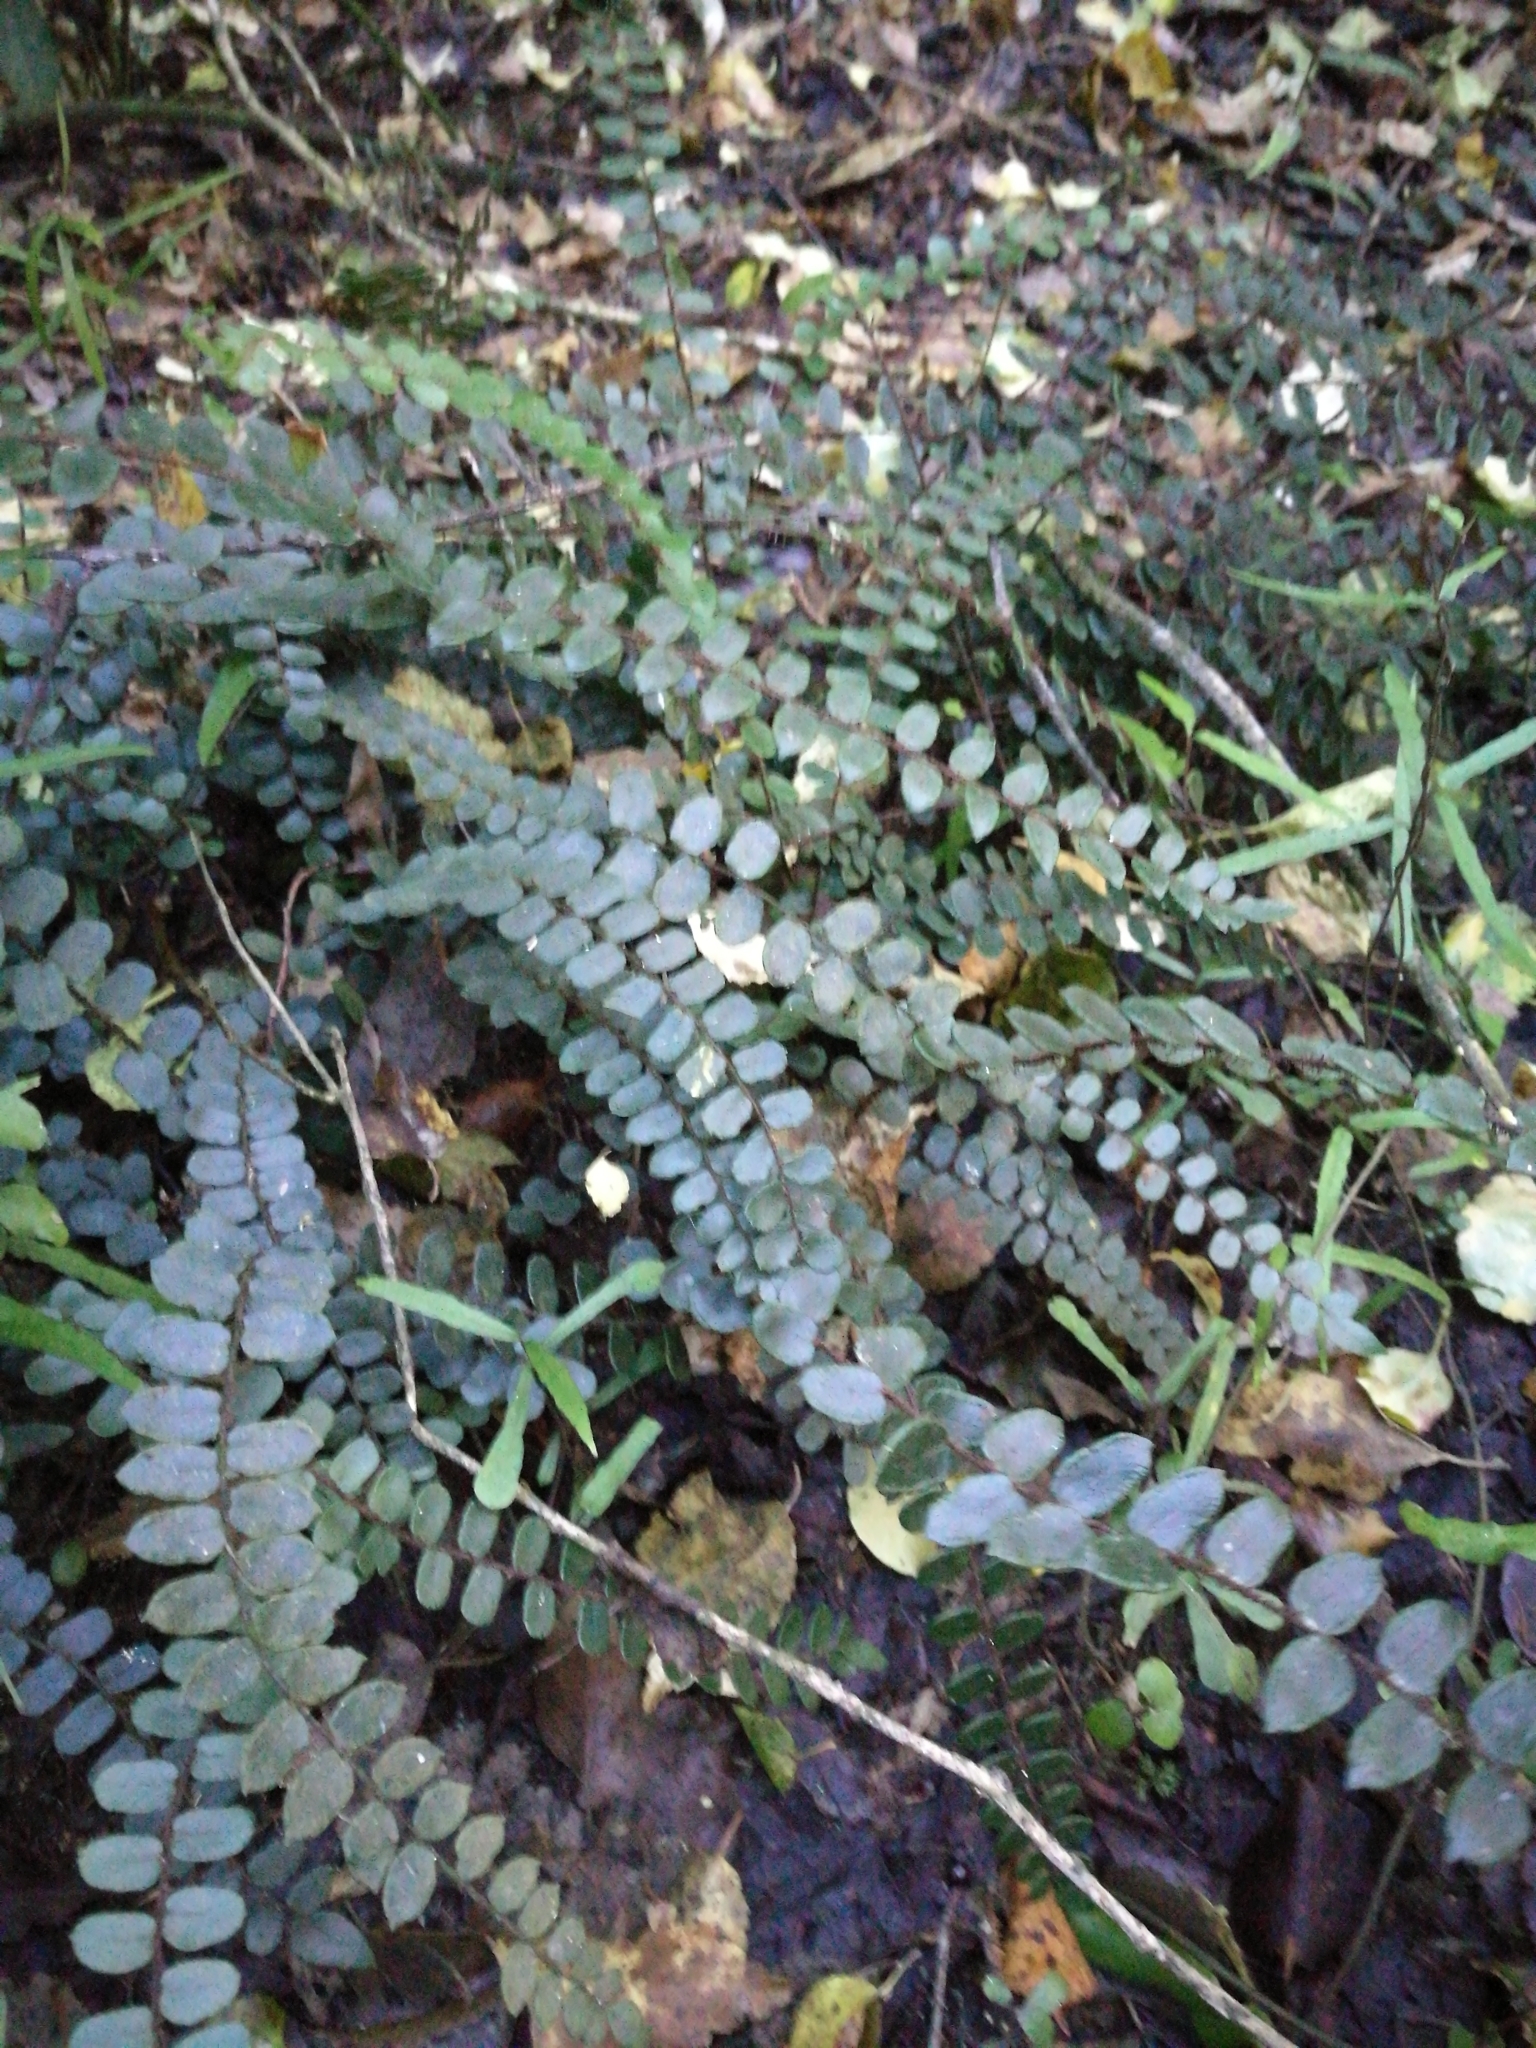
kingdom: Plantae
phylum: Tracheophyta
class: Polypodiopsida
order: Polypodiales
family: Pteridaceae
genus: Pellaea
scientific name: Pellaea rotundifolia
